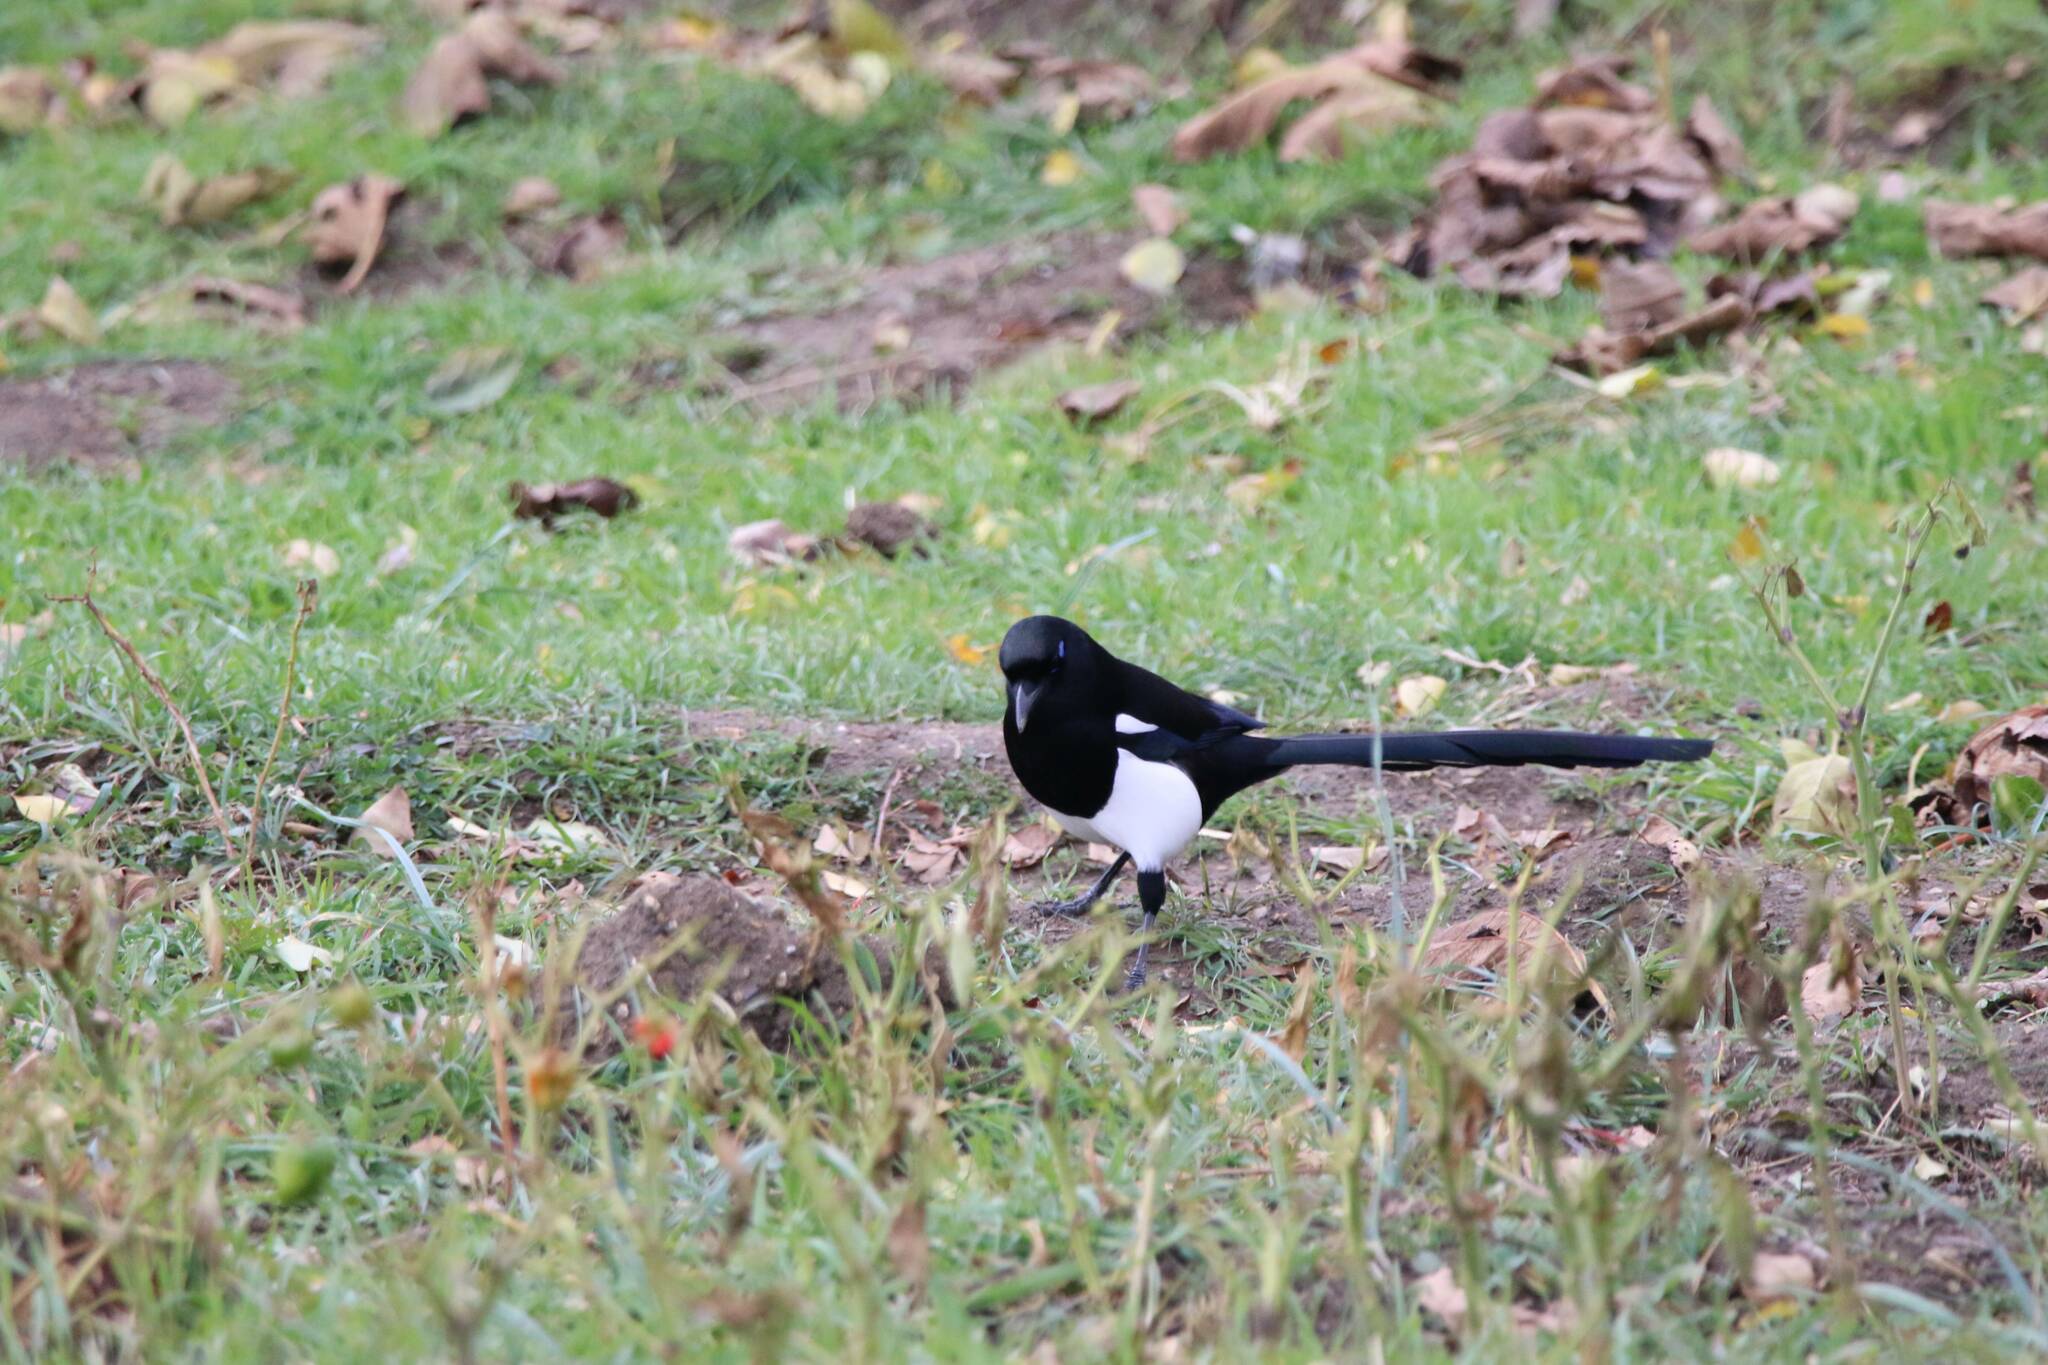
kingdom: Animalia
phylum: Chordata
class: Aves
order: Passeriformes
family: Corvidae
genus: Pica
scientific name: Pica mauritanica
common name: Maghreb magpie
